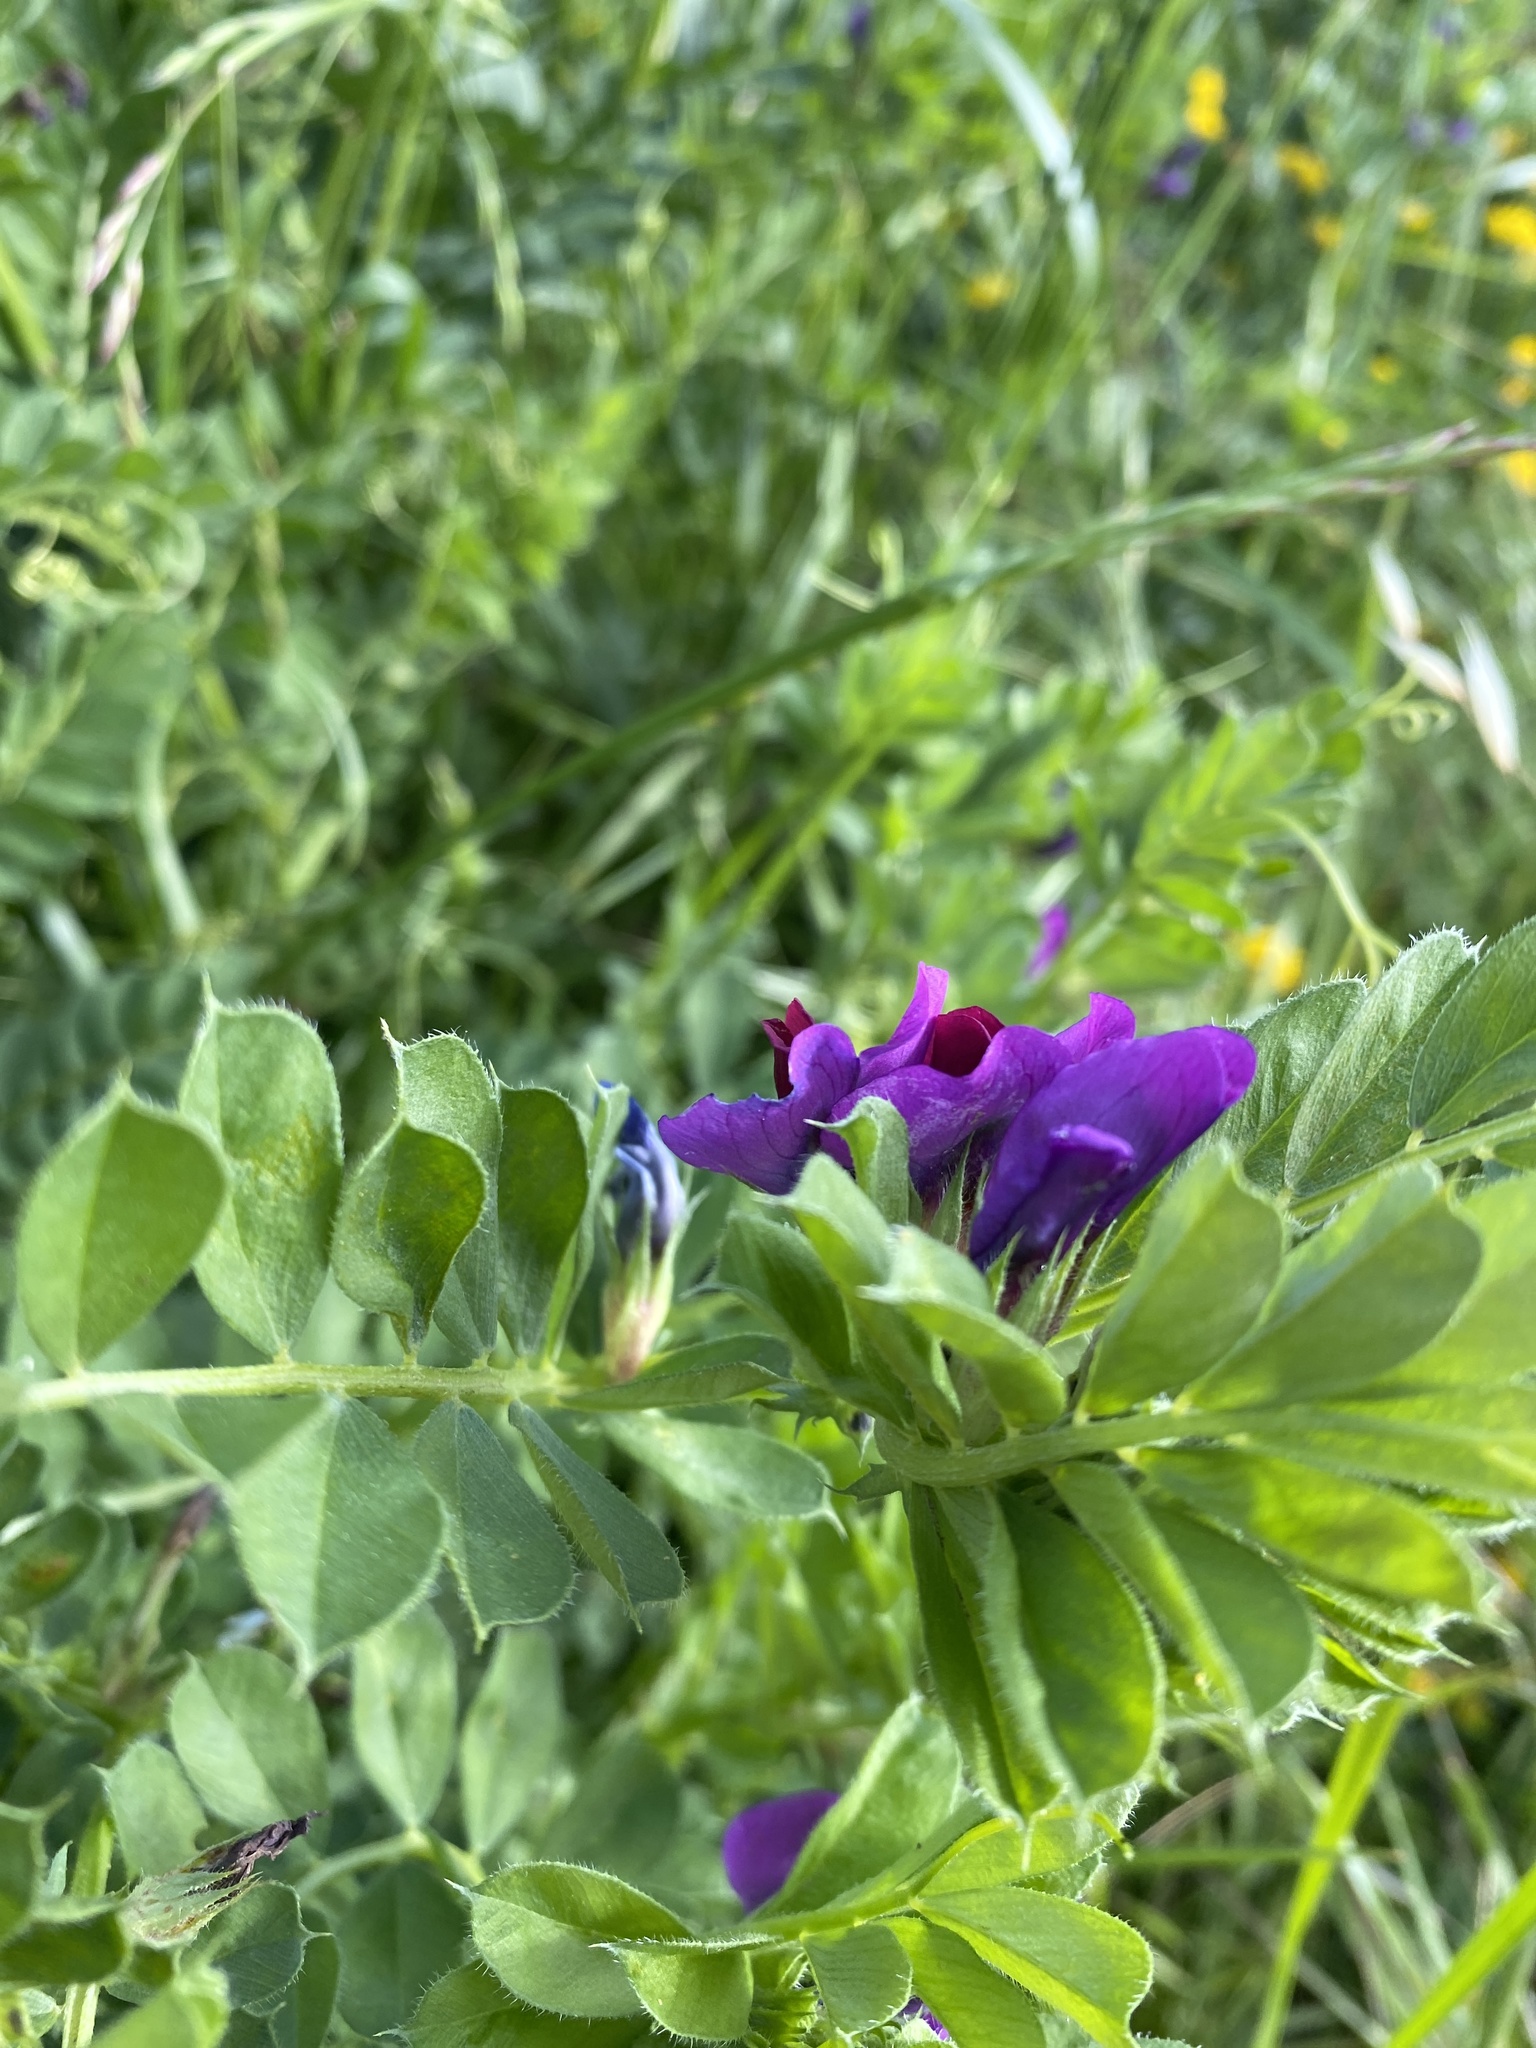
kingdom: Plantae
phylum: Tracheophyta
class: Magnoliopsida
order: Fabales
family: Fabaceae
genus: Vicia
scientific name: Vicia sativa
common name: Garden vetch
